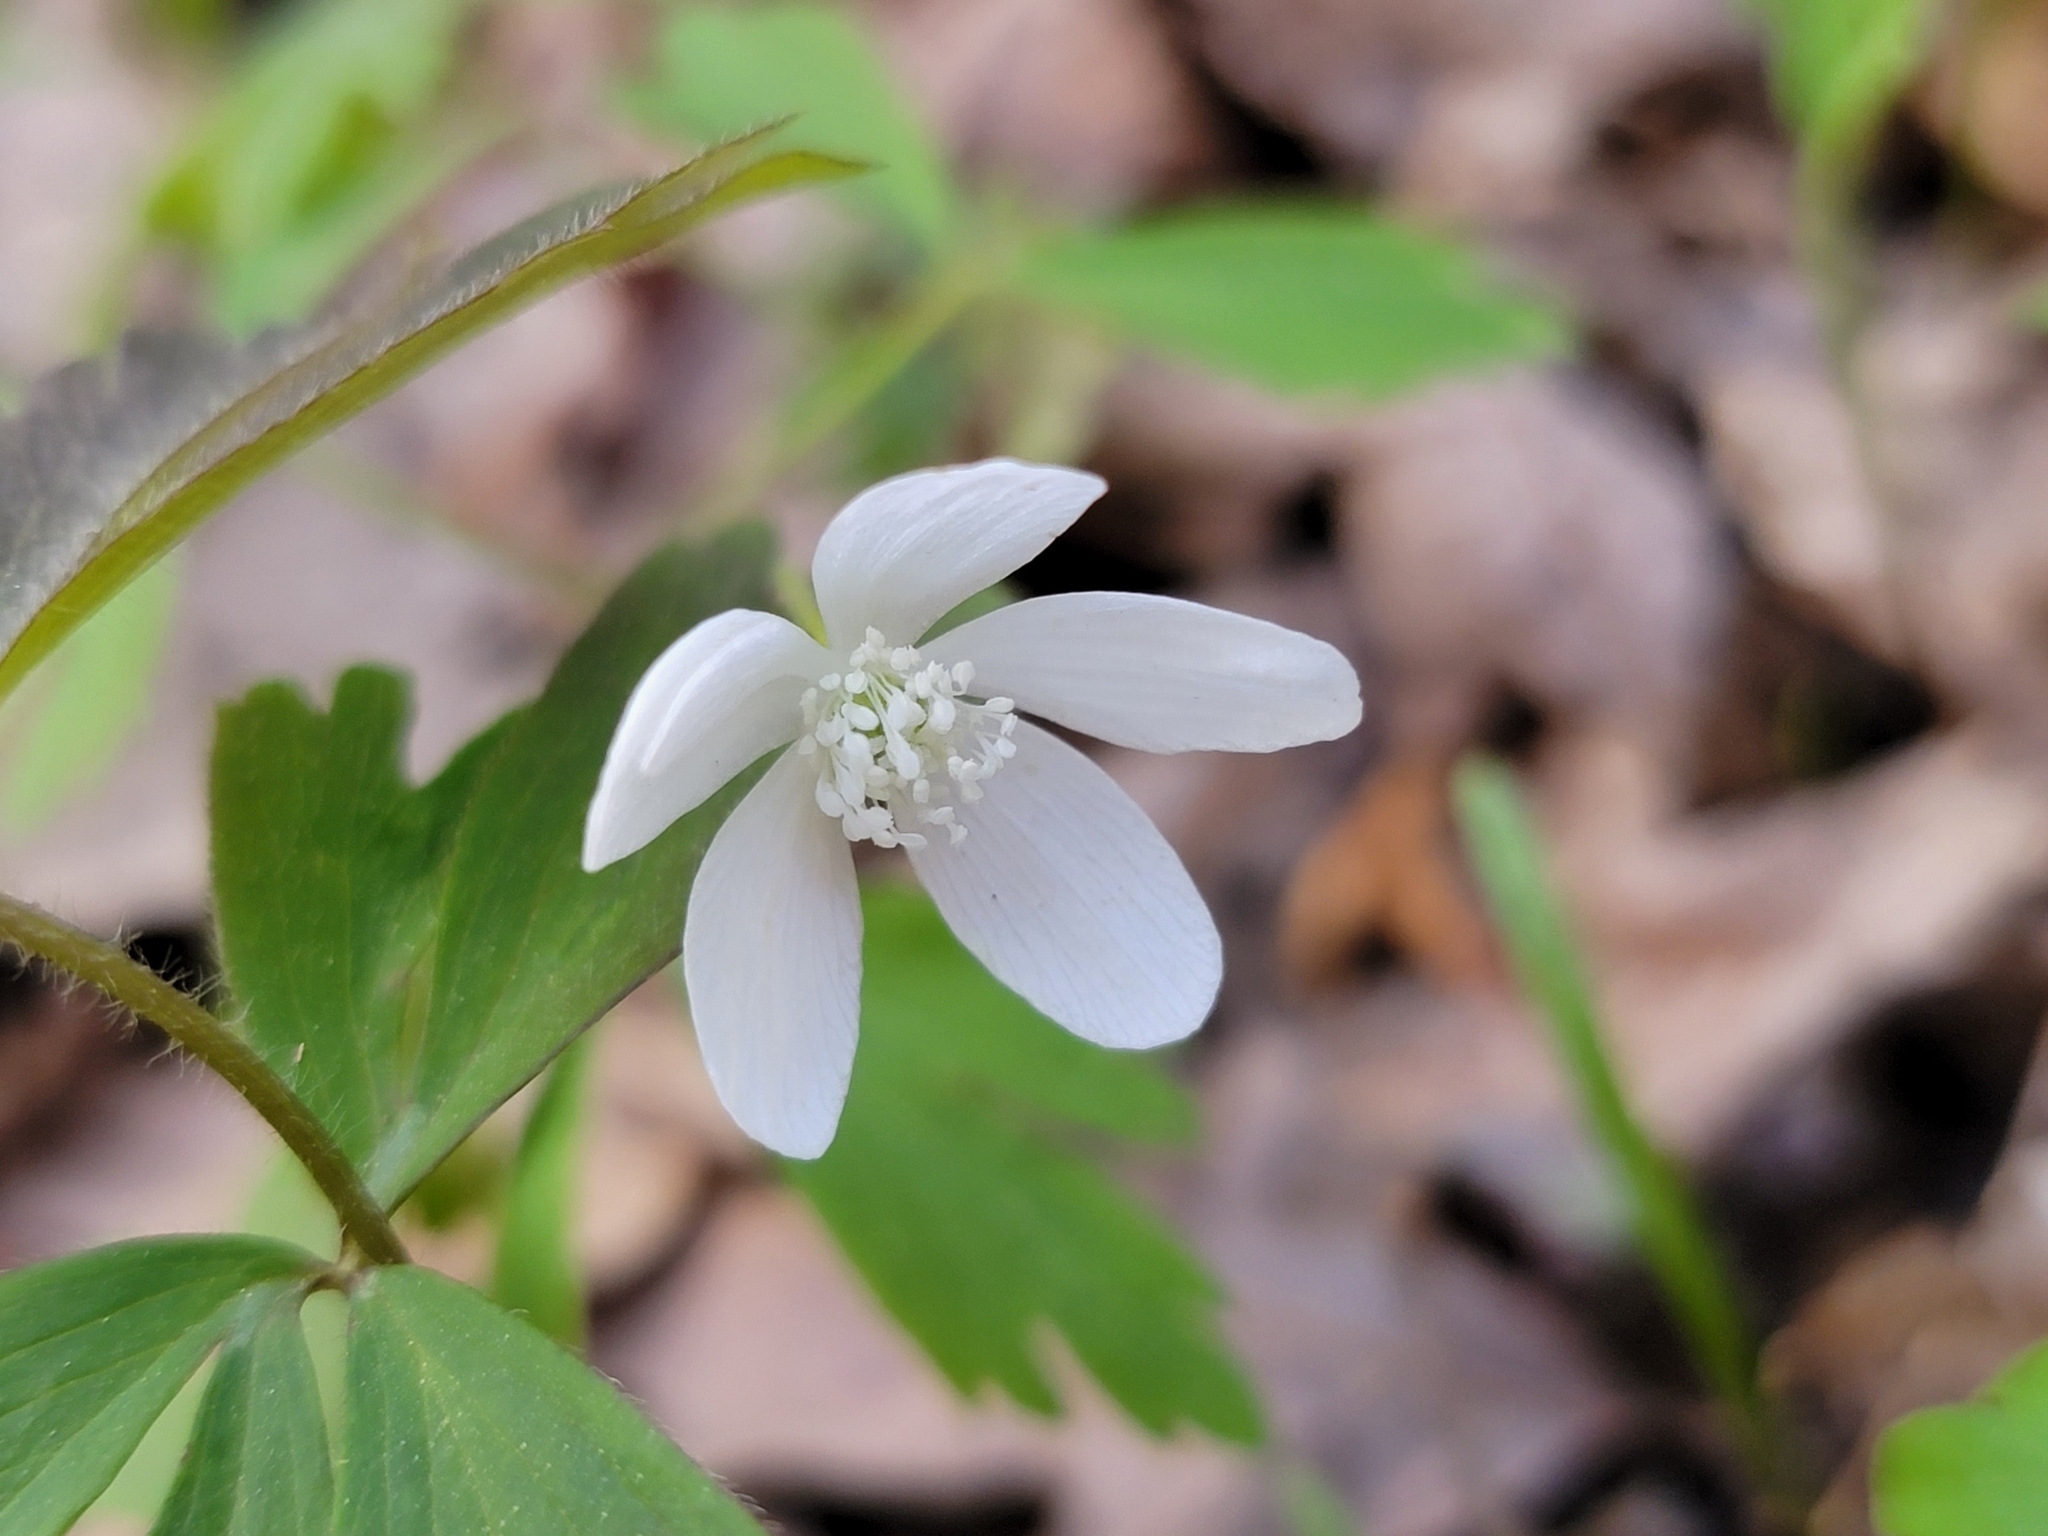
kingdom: Plantae
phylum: Tracheophyta
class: Magnoliopsida
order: Ranunculales
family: Ranunculaceae
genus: Anemone
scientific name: Anemone quinquefolia
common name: Wood anemone
